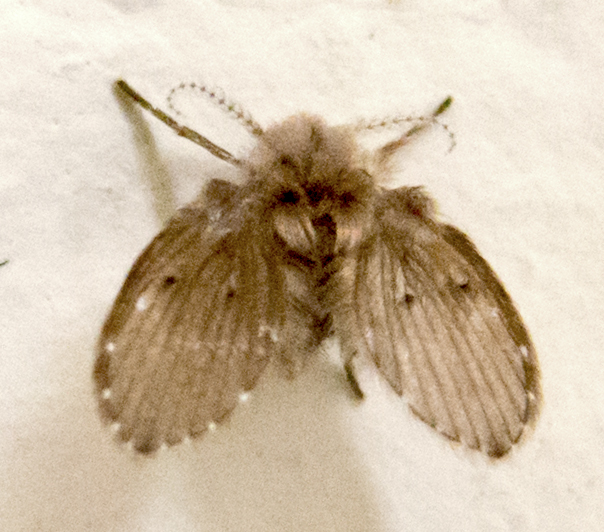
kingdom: Animalia
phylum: Arthropoda
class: Insecta
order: Diptera
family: Psychodidae
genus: Clogmia
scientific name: Clogmia albipunctatus
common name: White-spotted moth fly
